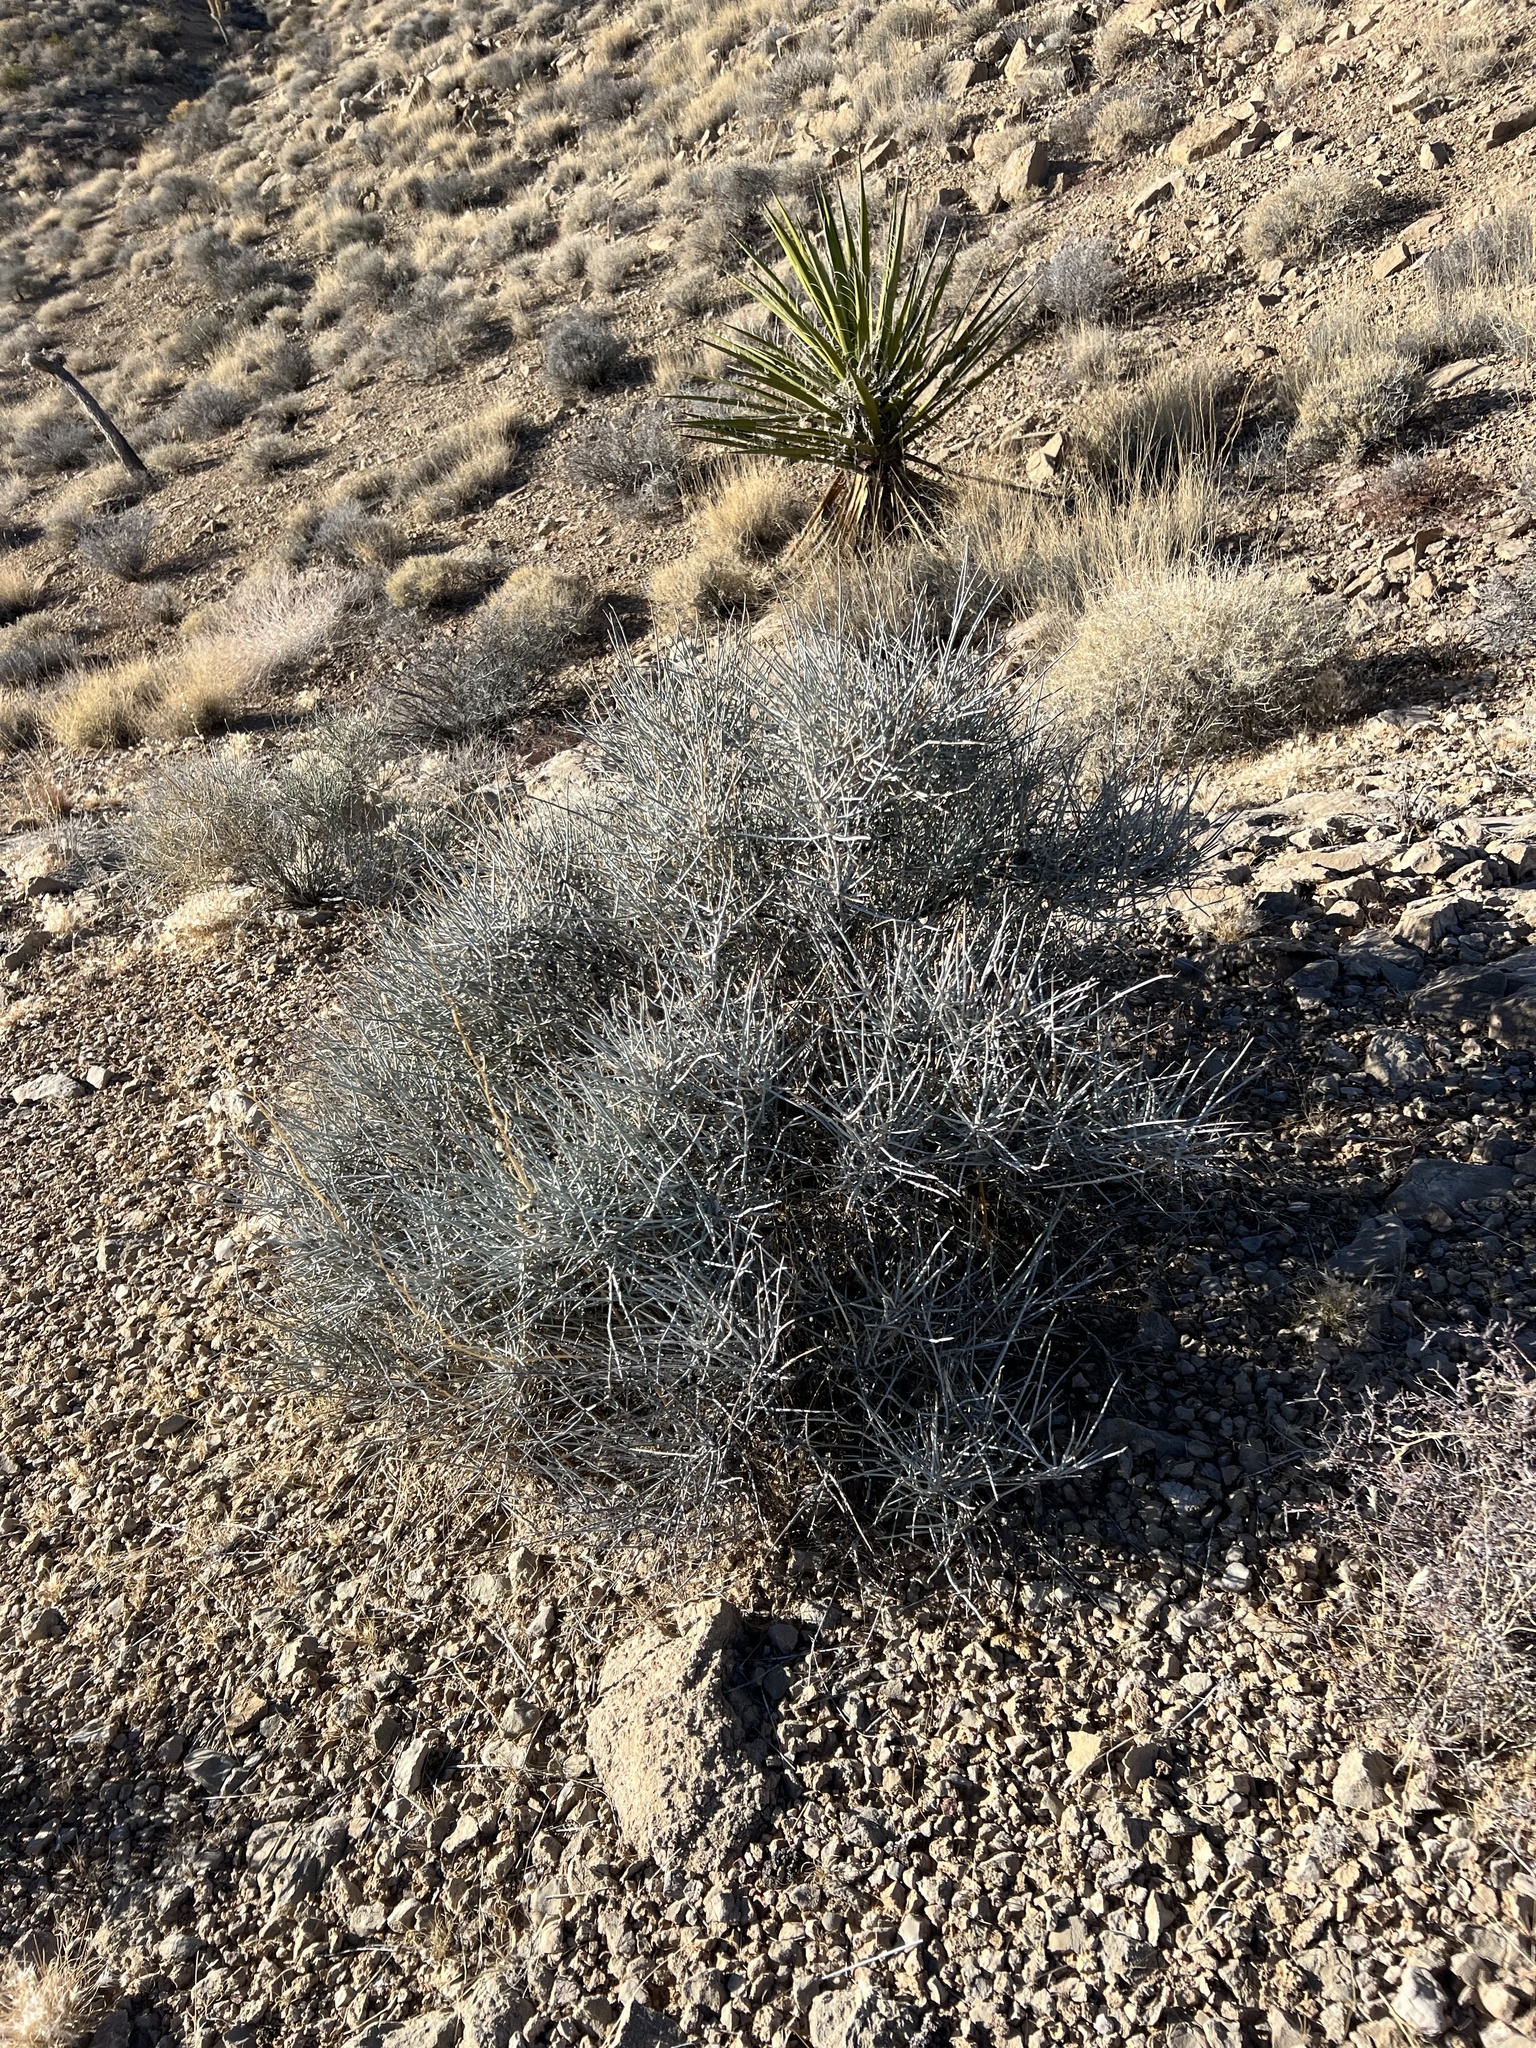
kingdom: Plantae
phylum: Tracheophyta
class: Gnetopsida
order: Ephedrales
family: Ephedraceae
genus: Ephedra
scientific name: Ephedra nevadensis
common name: Gray ephedra
